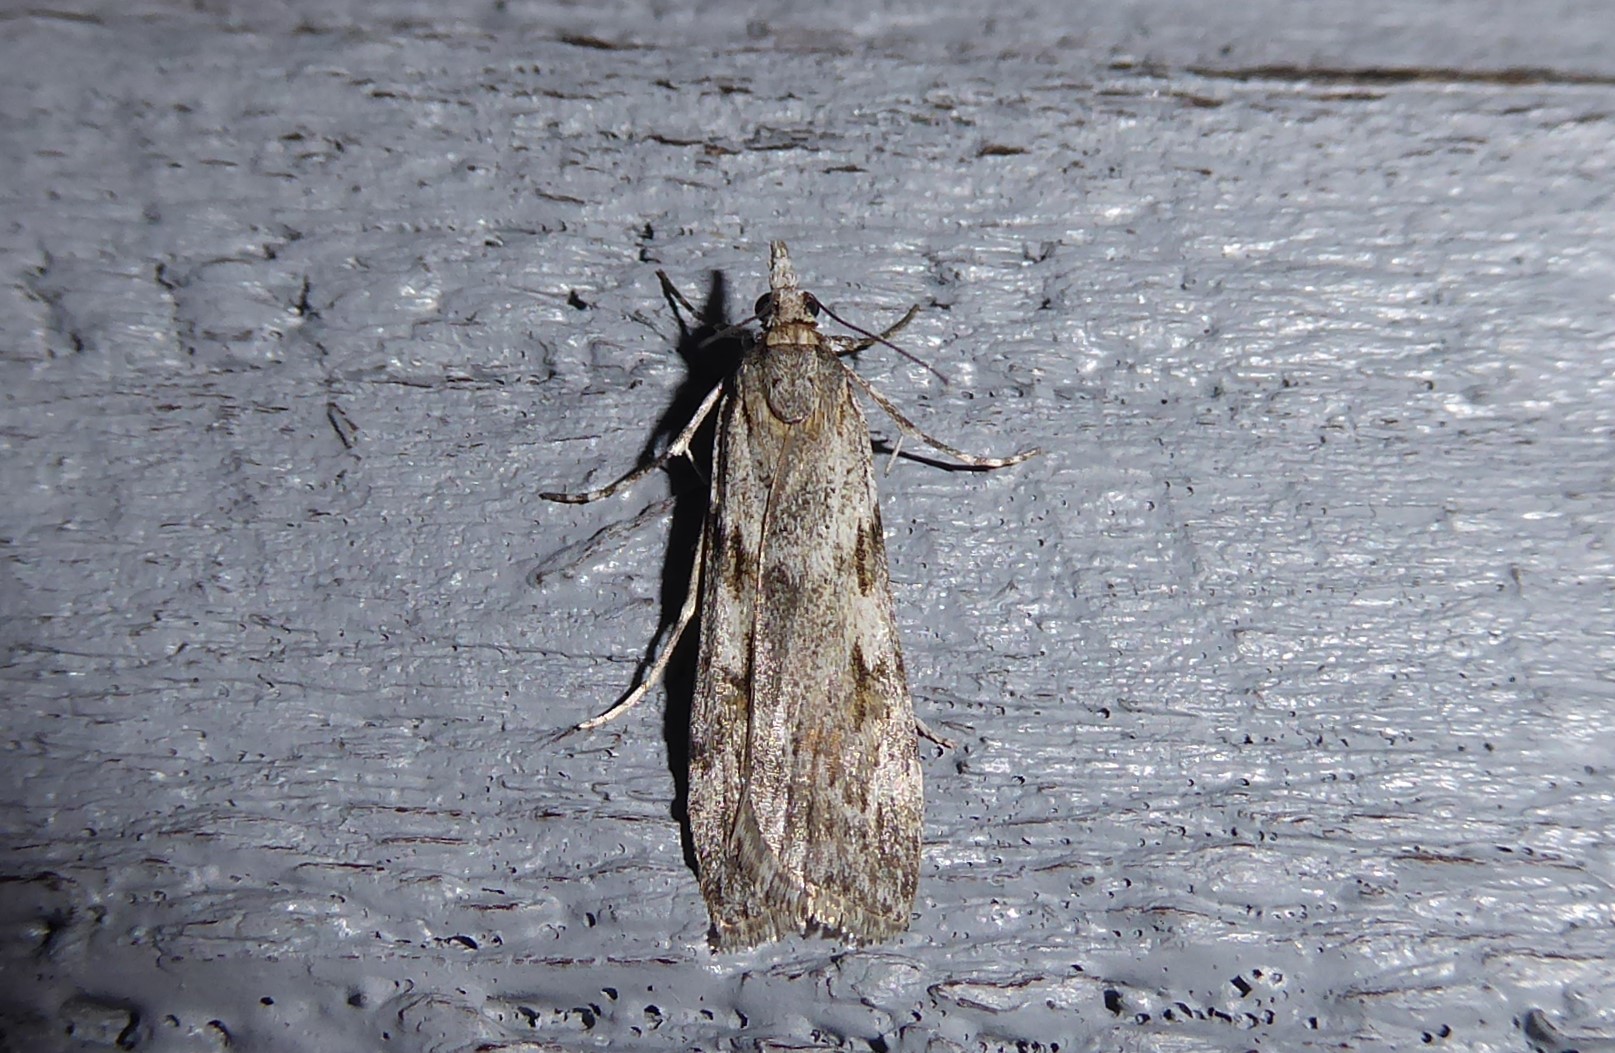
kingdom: Animalia
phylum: Arthropoda
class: Insecta
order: Lepidoptera
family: Crambidae
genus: Scoparia
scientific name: Scoparia halopis
